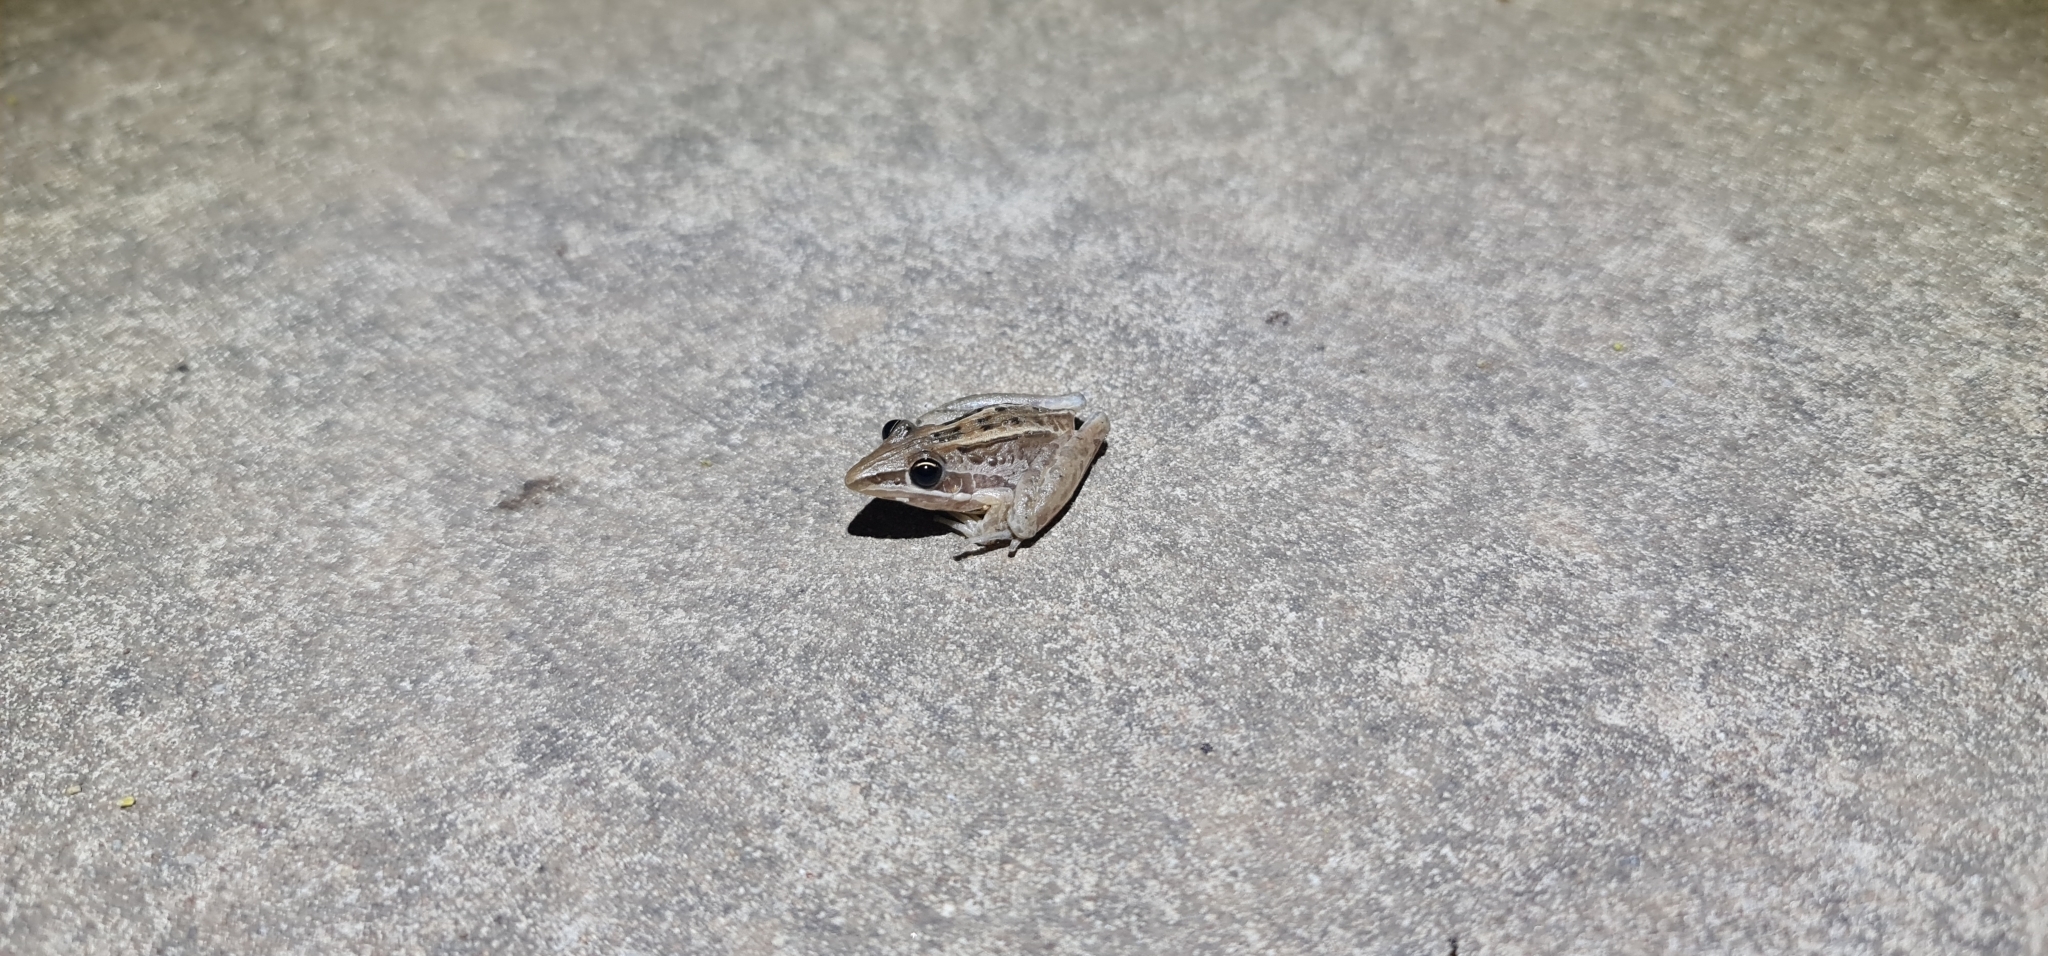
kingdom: Animalia
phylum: Chordata
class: Amphibia
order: Anura
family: Pelodryadidae
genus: Litoria
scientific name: Litoria nasuta
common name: Rocket frog
